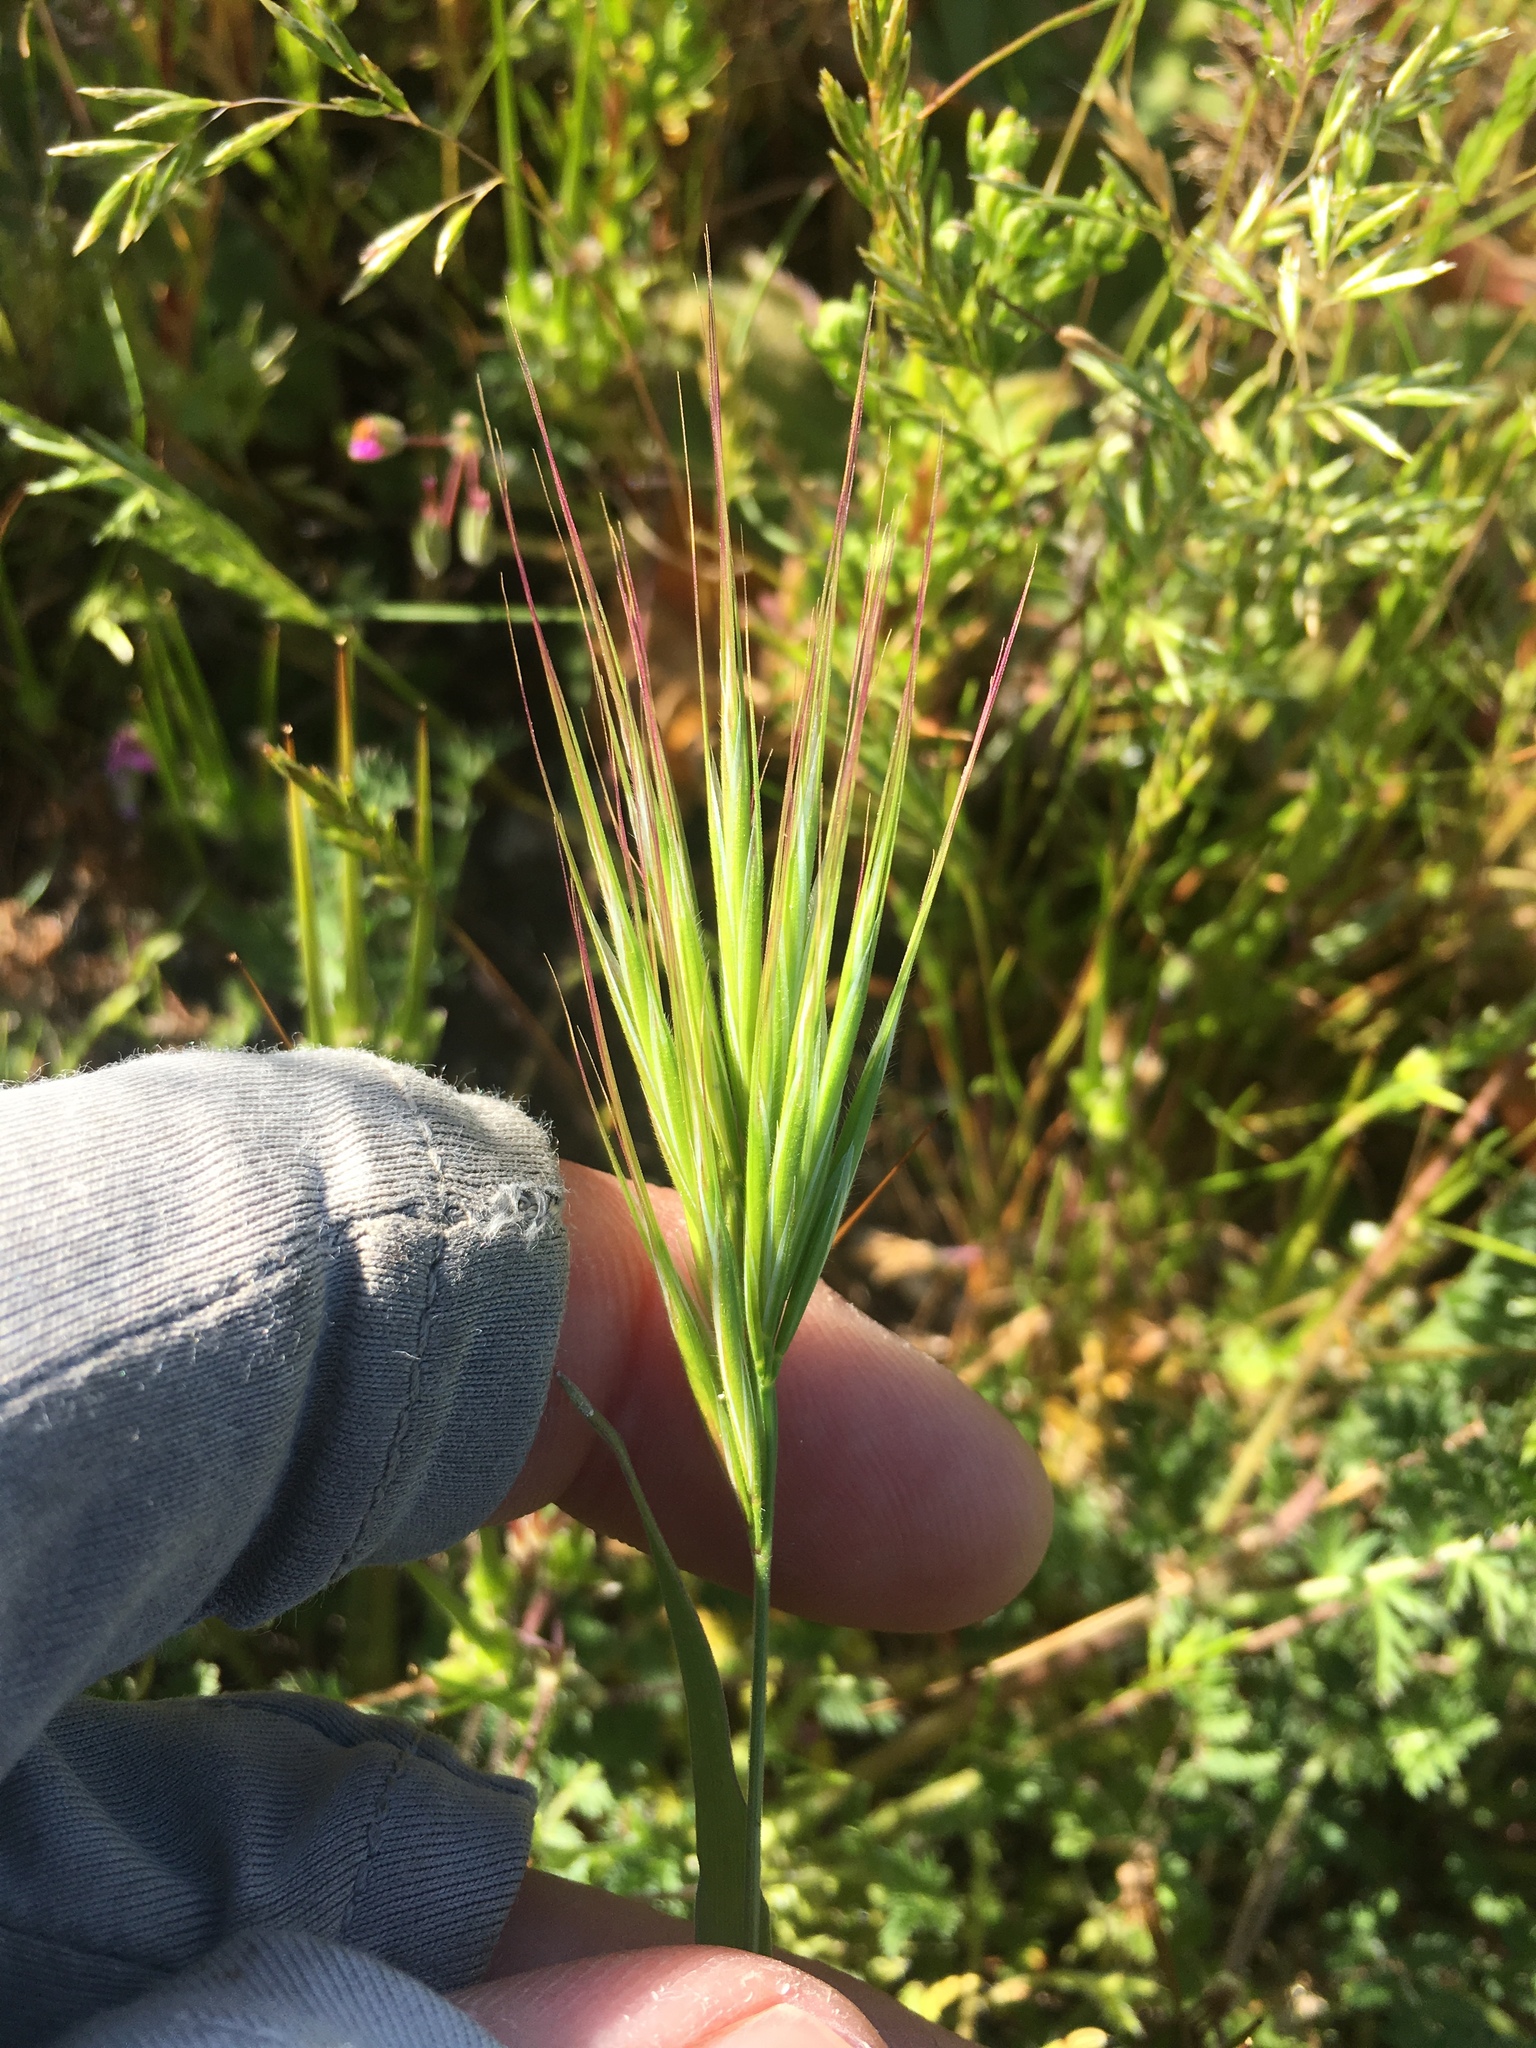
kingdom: Plantae
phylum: Tracheophyta
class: Liliopsida
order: Poales
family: Poaceae
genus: Bromus
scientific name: Bromus rubens
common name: Red brome
